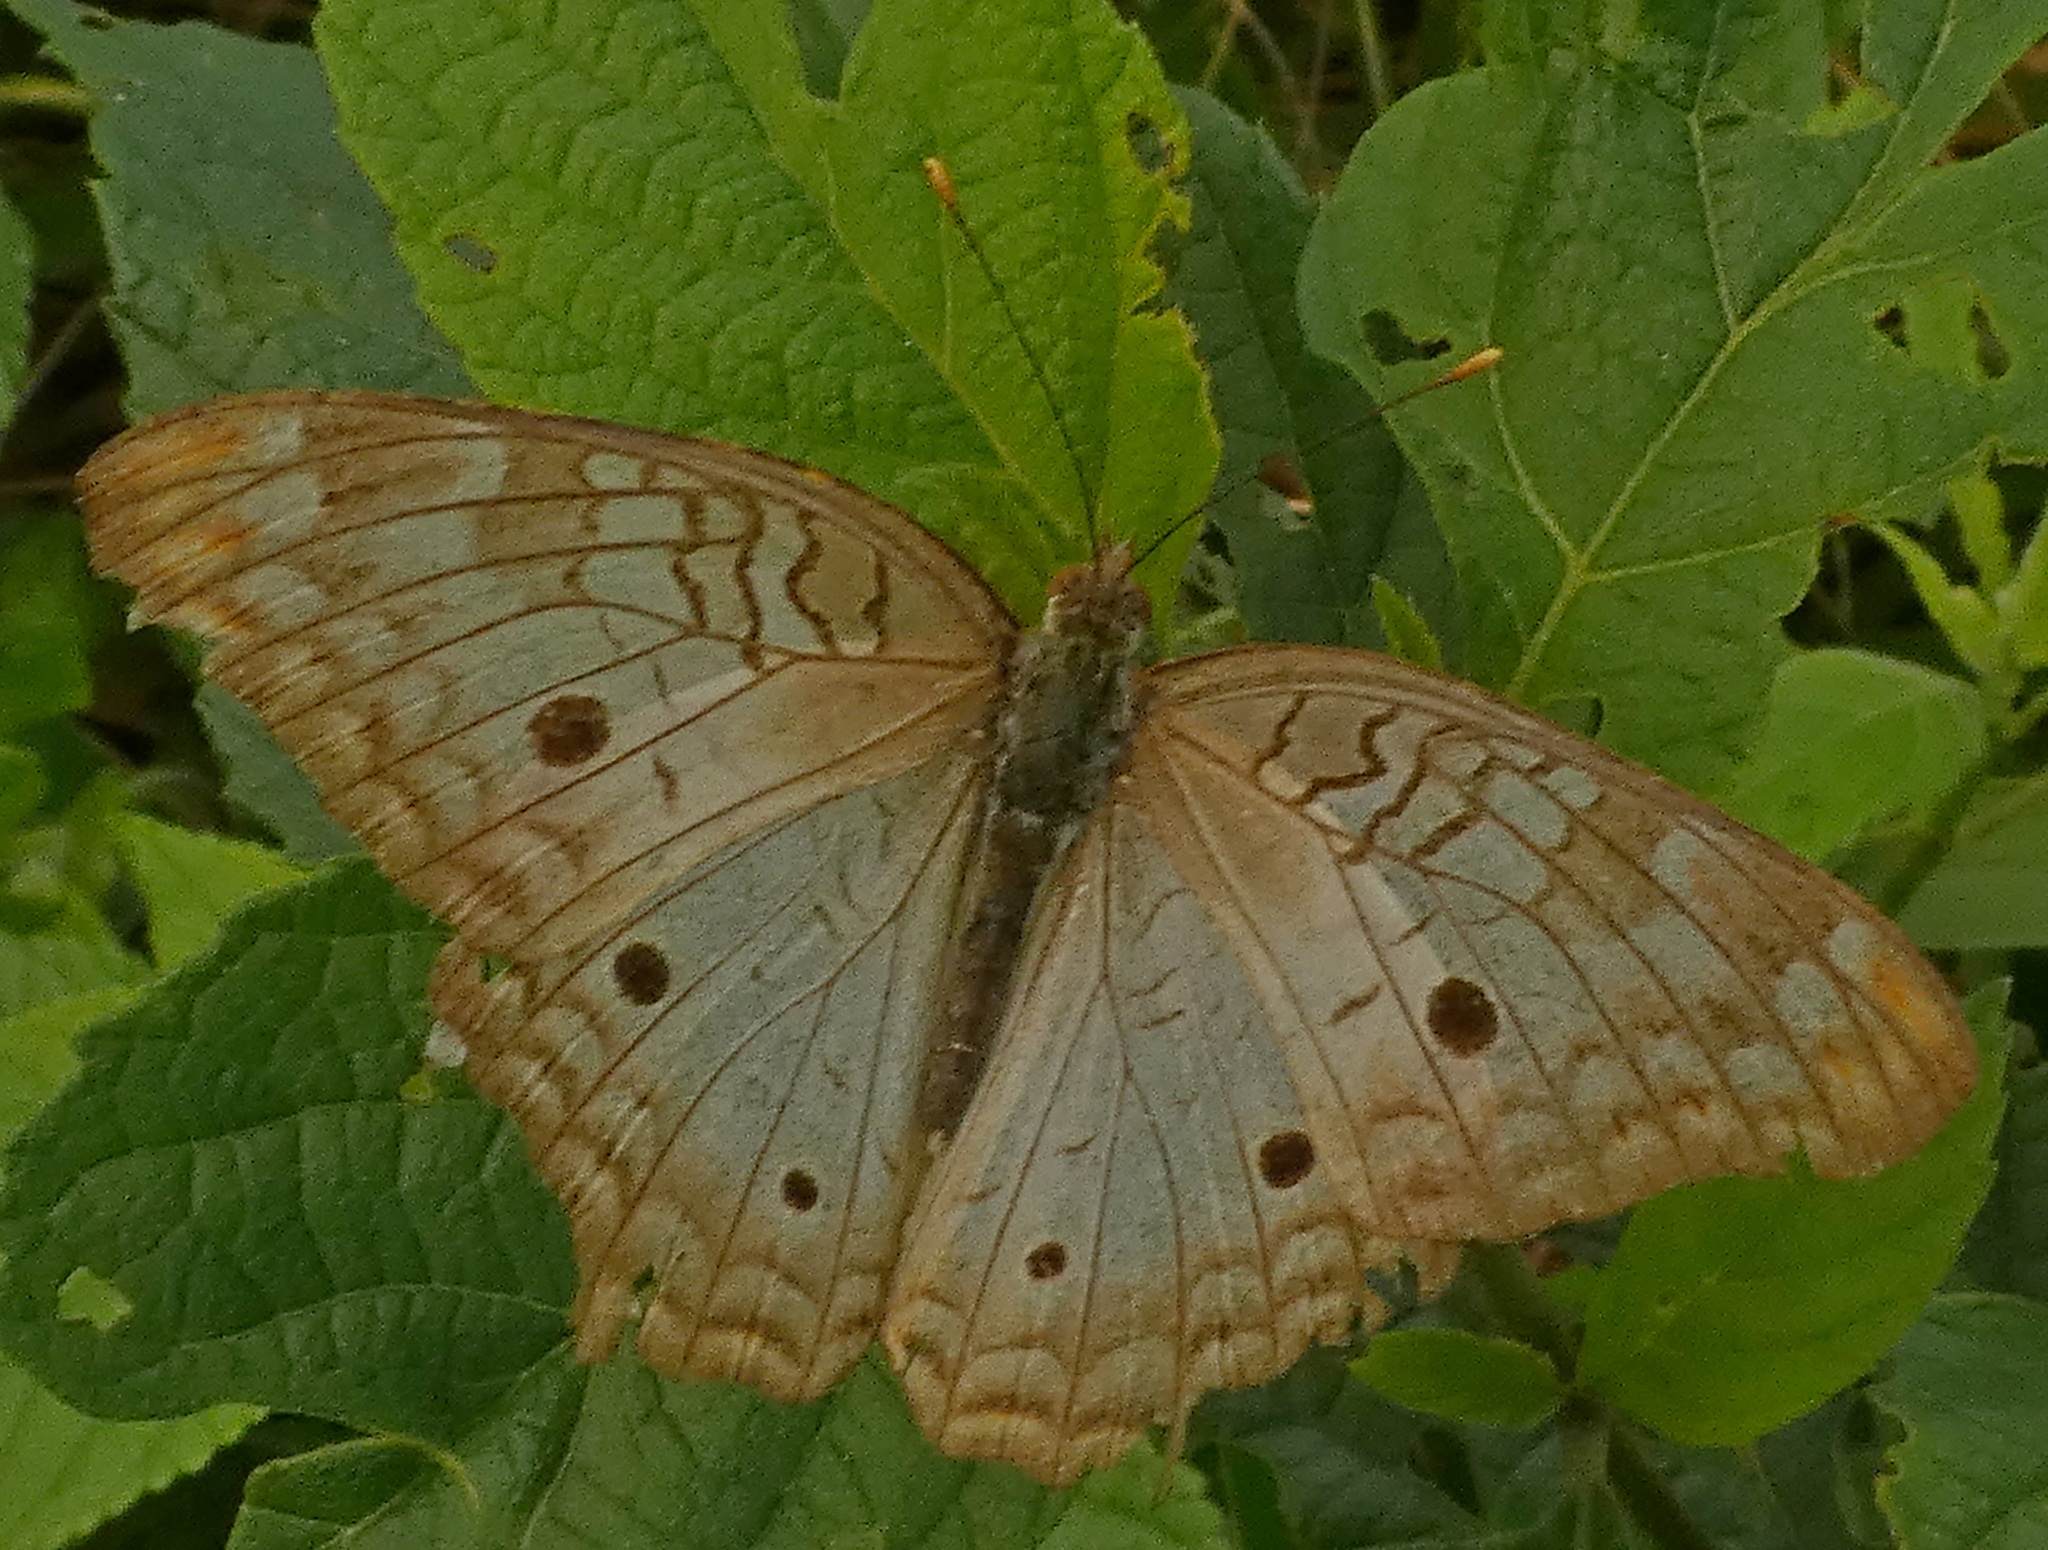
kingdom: Animalia
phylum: Arthropoda
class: Insecta
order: Lepidoptera
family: Nymphalidae
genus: Anartia
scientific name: Anartia jatrophae
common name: White peacock
